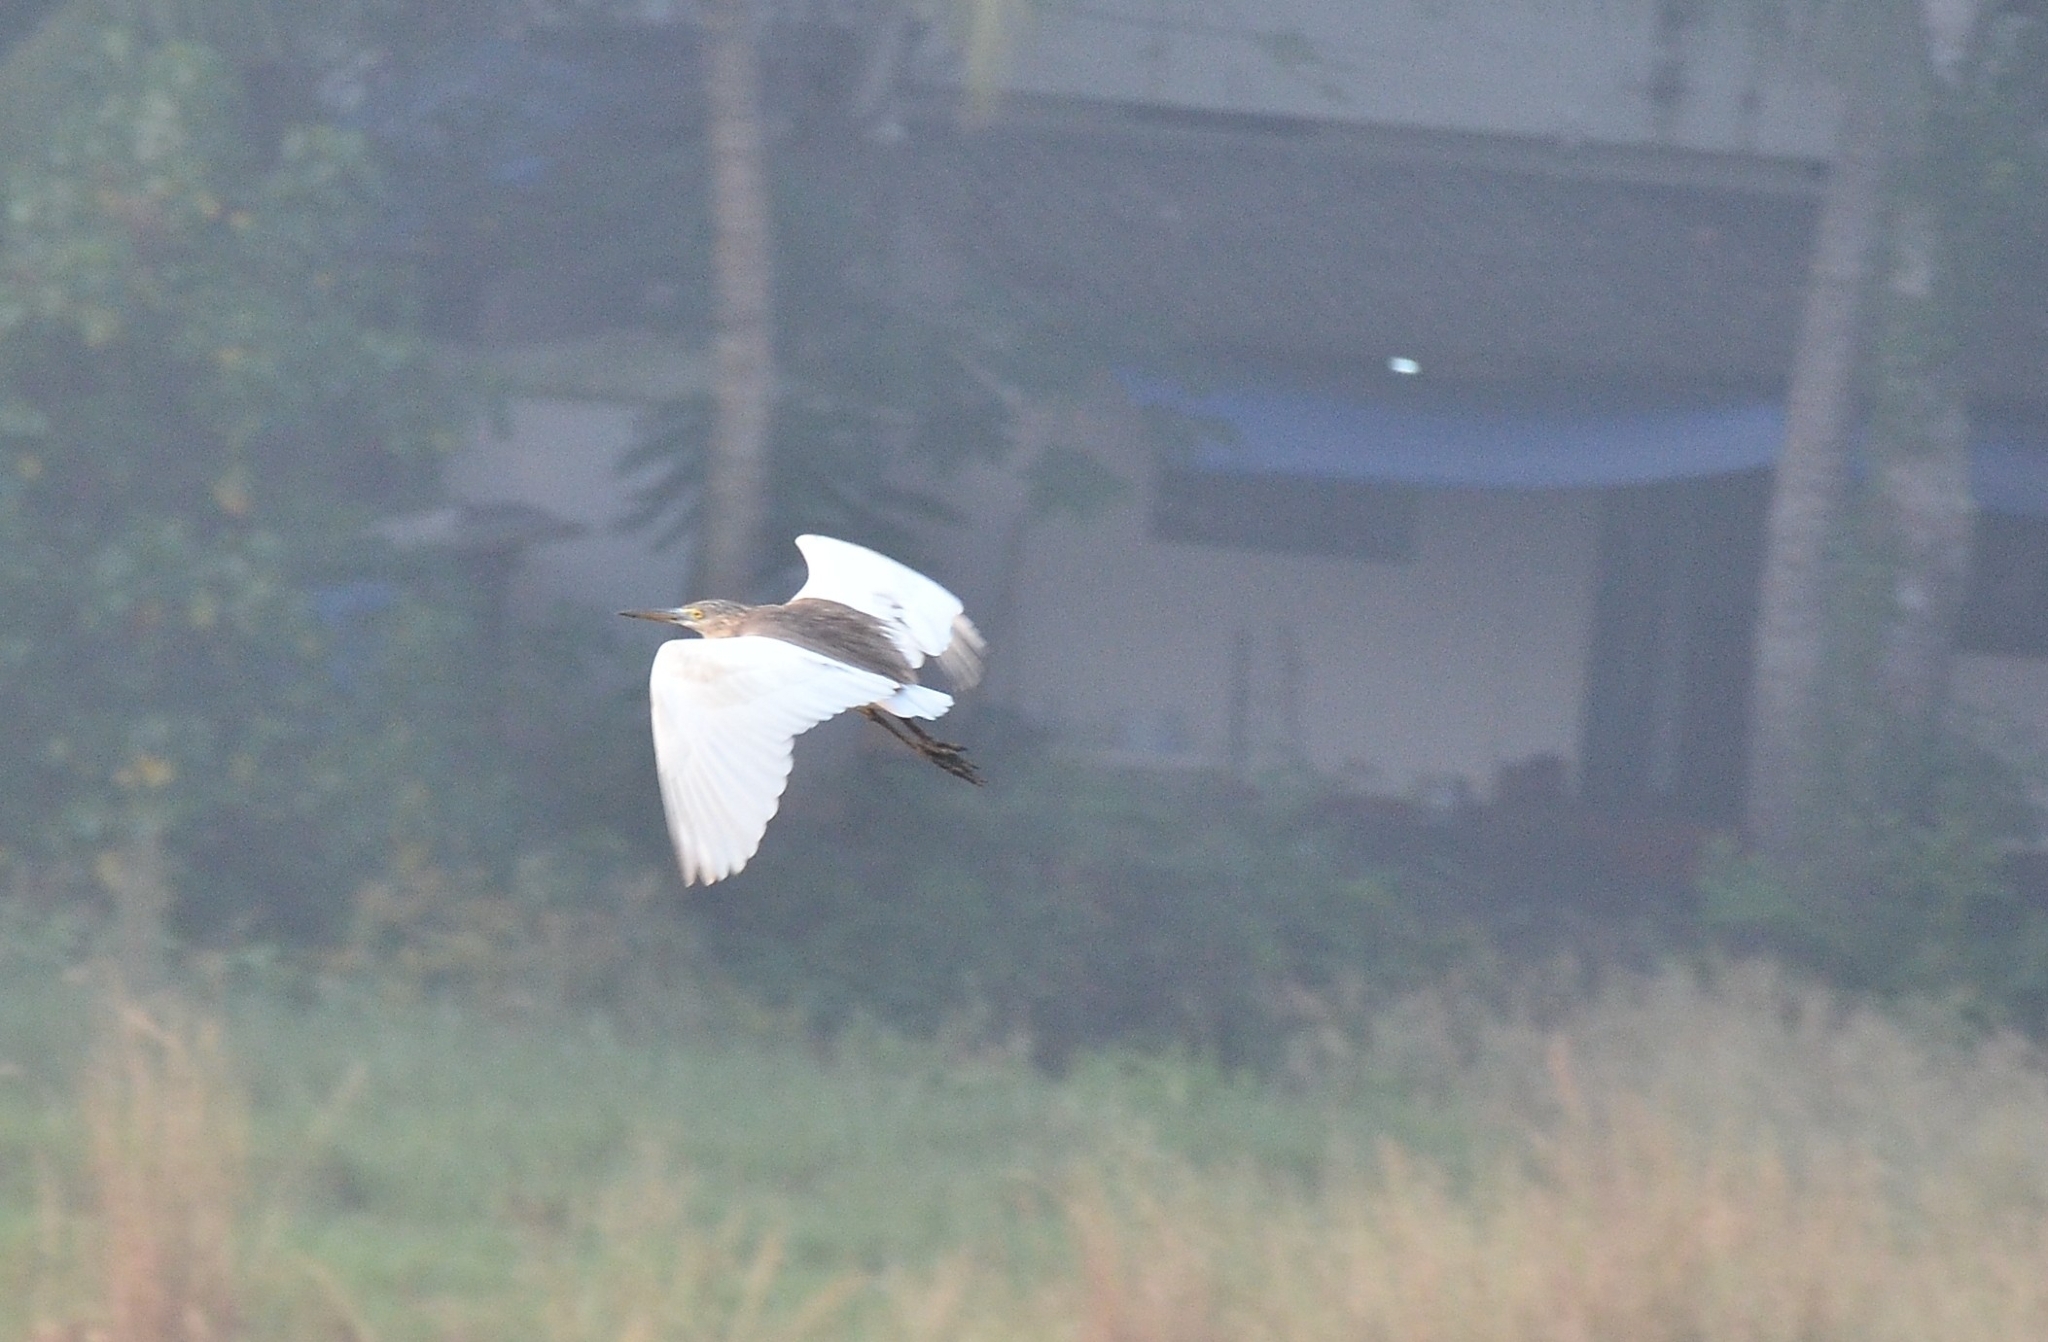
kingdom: Animalia
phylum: Chordata
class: Aves
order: Pelecaniformes
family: Ardeidae
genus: Ardeola
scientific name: Ardeola grayii
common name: Indian pond heron
